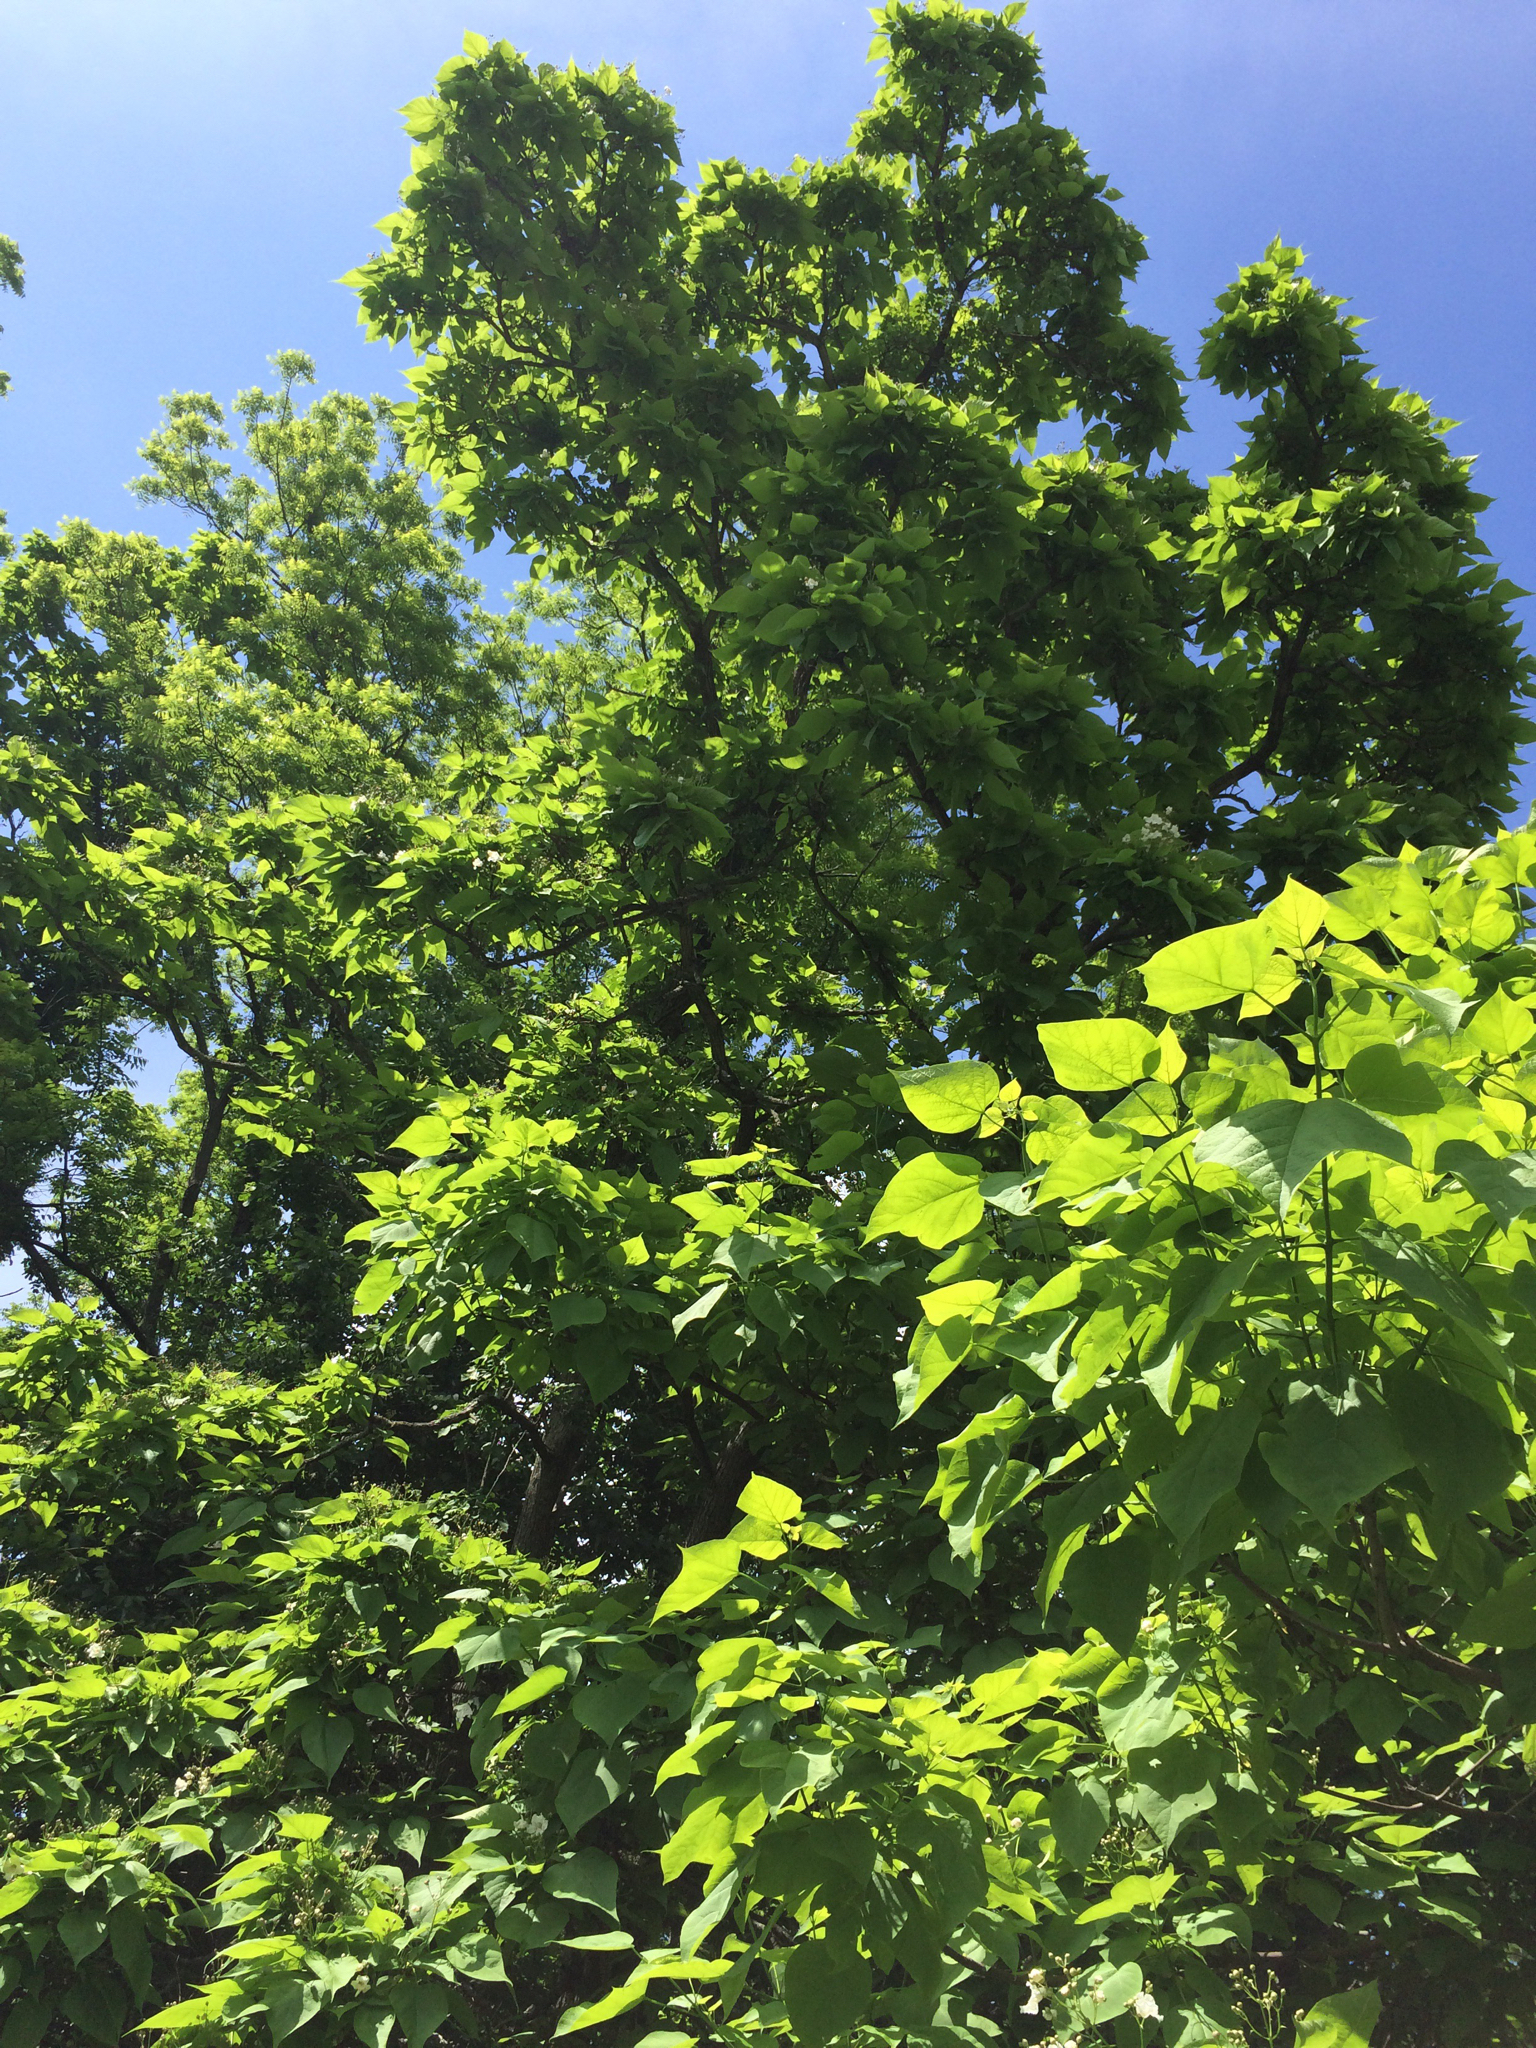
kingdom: Plantae
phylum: Tracheophyta
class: Magnoliopsida
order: Lamiales
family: Bignoniaceae
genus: Catalpa
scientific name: Catalpa speciosa
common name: Northern catalpa
